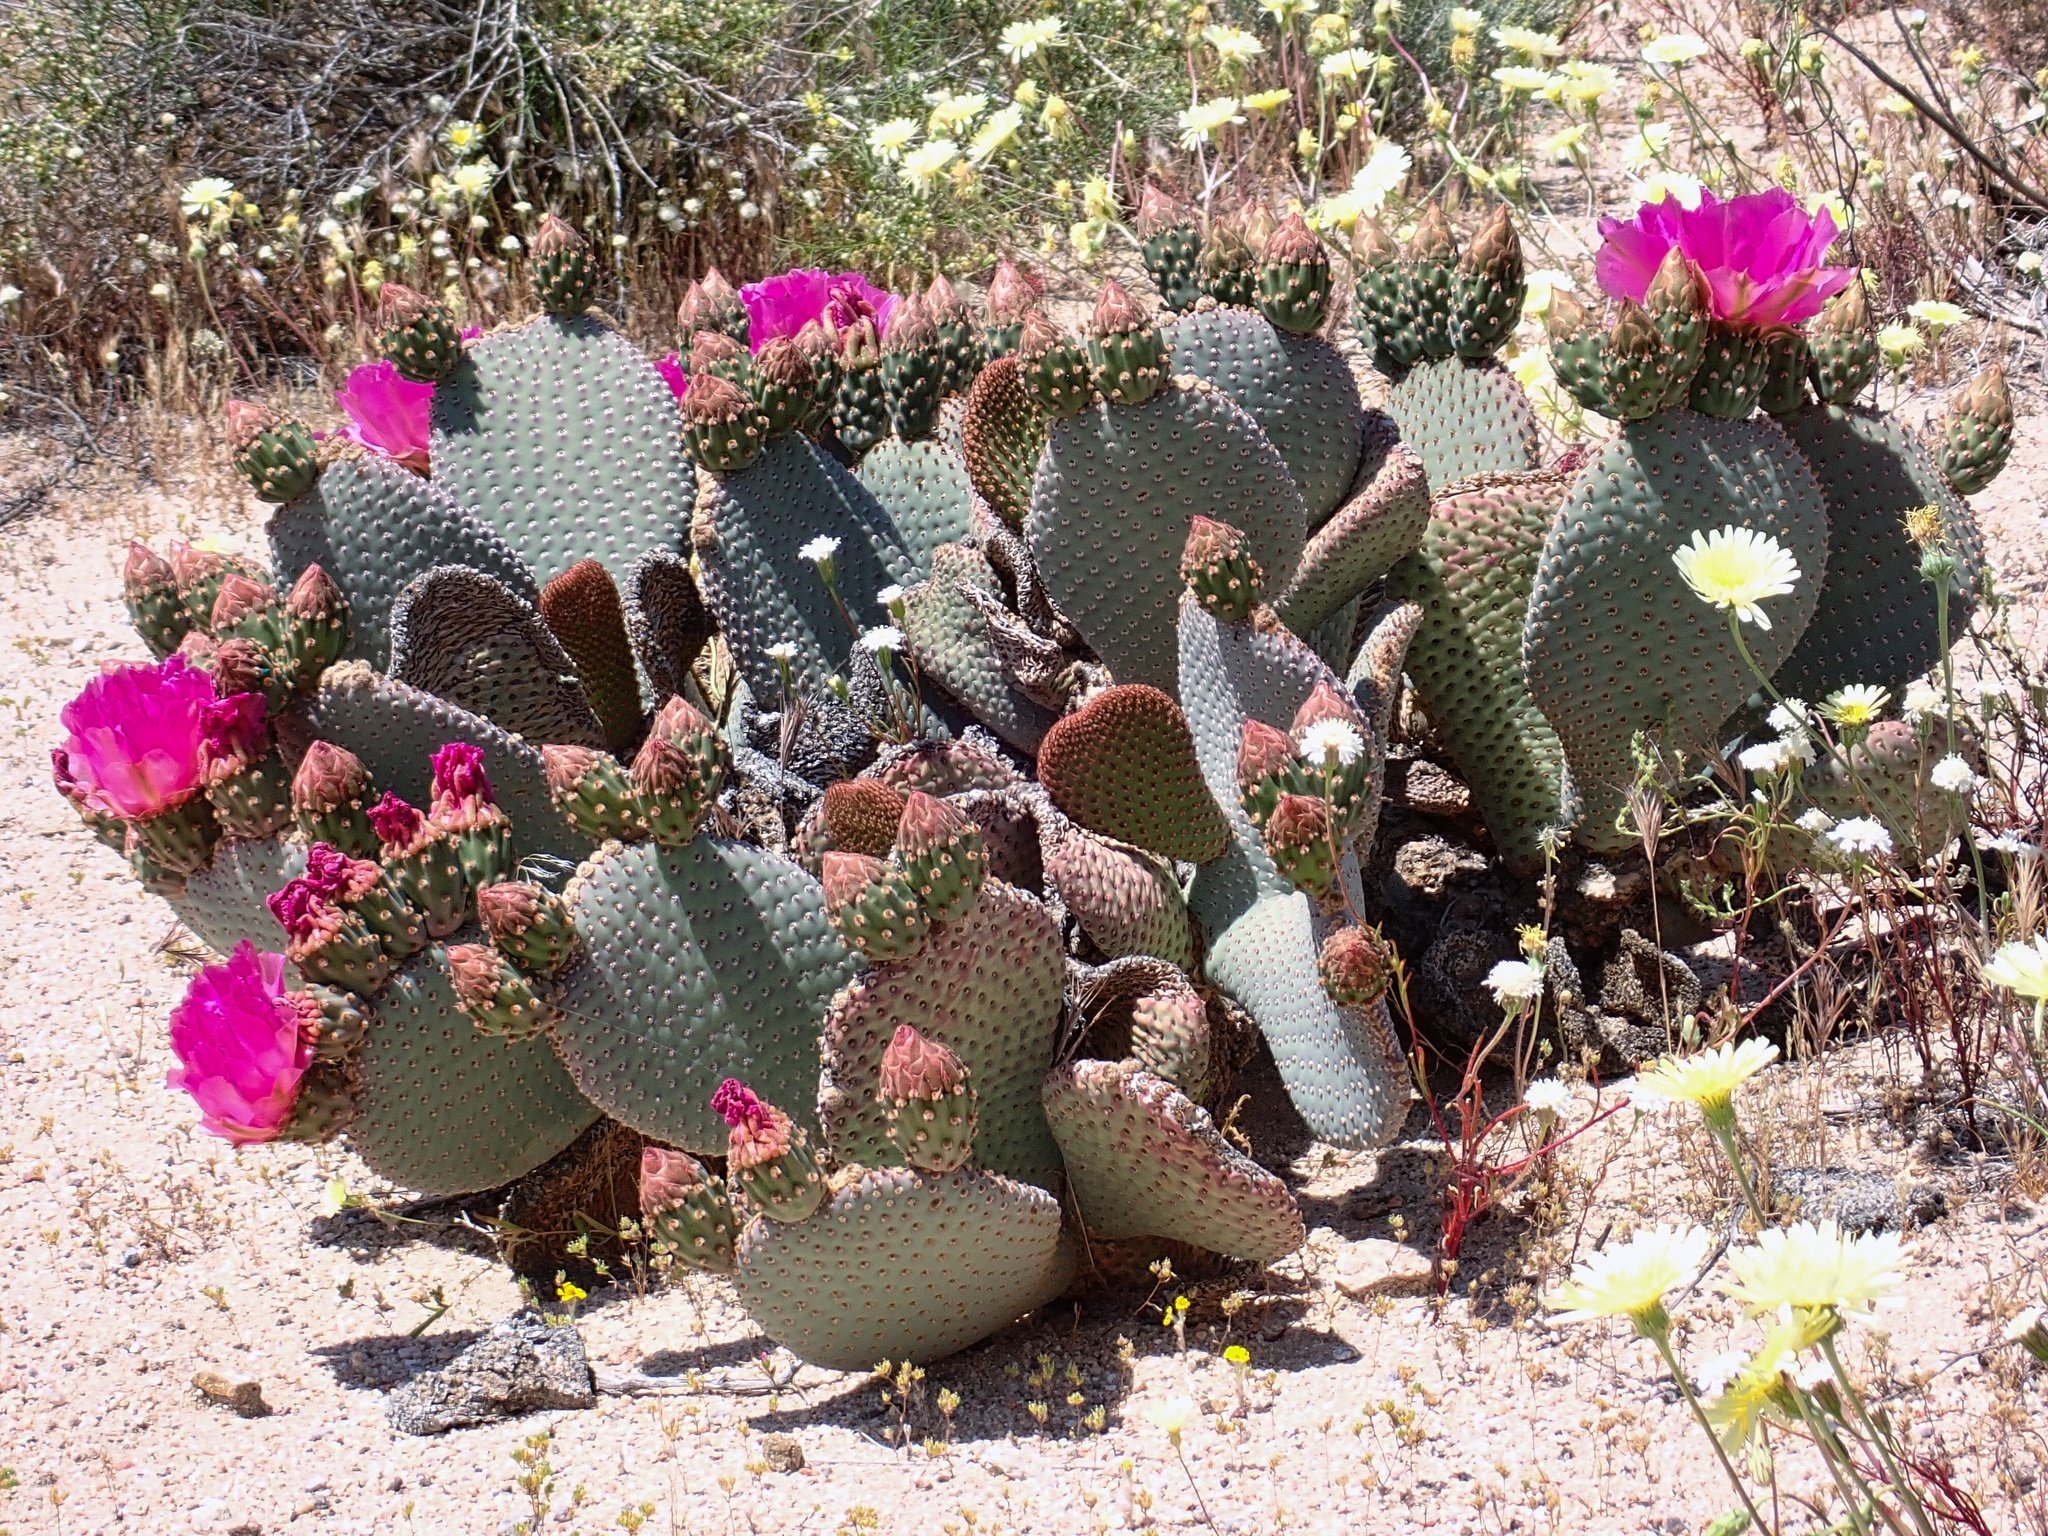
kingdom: Plantae
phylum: Tracheophyta
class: Magnoliopsida
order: Caryophyllales
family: Cactaceae
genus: Opuntia
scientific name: Opuntia basilaris
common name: Beavertail prickly-pear
